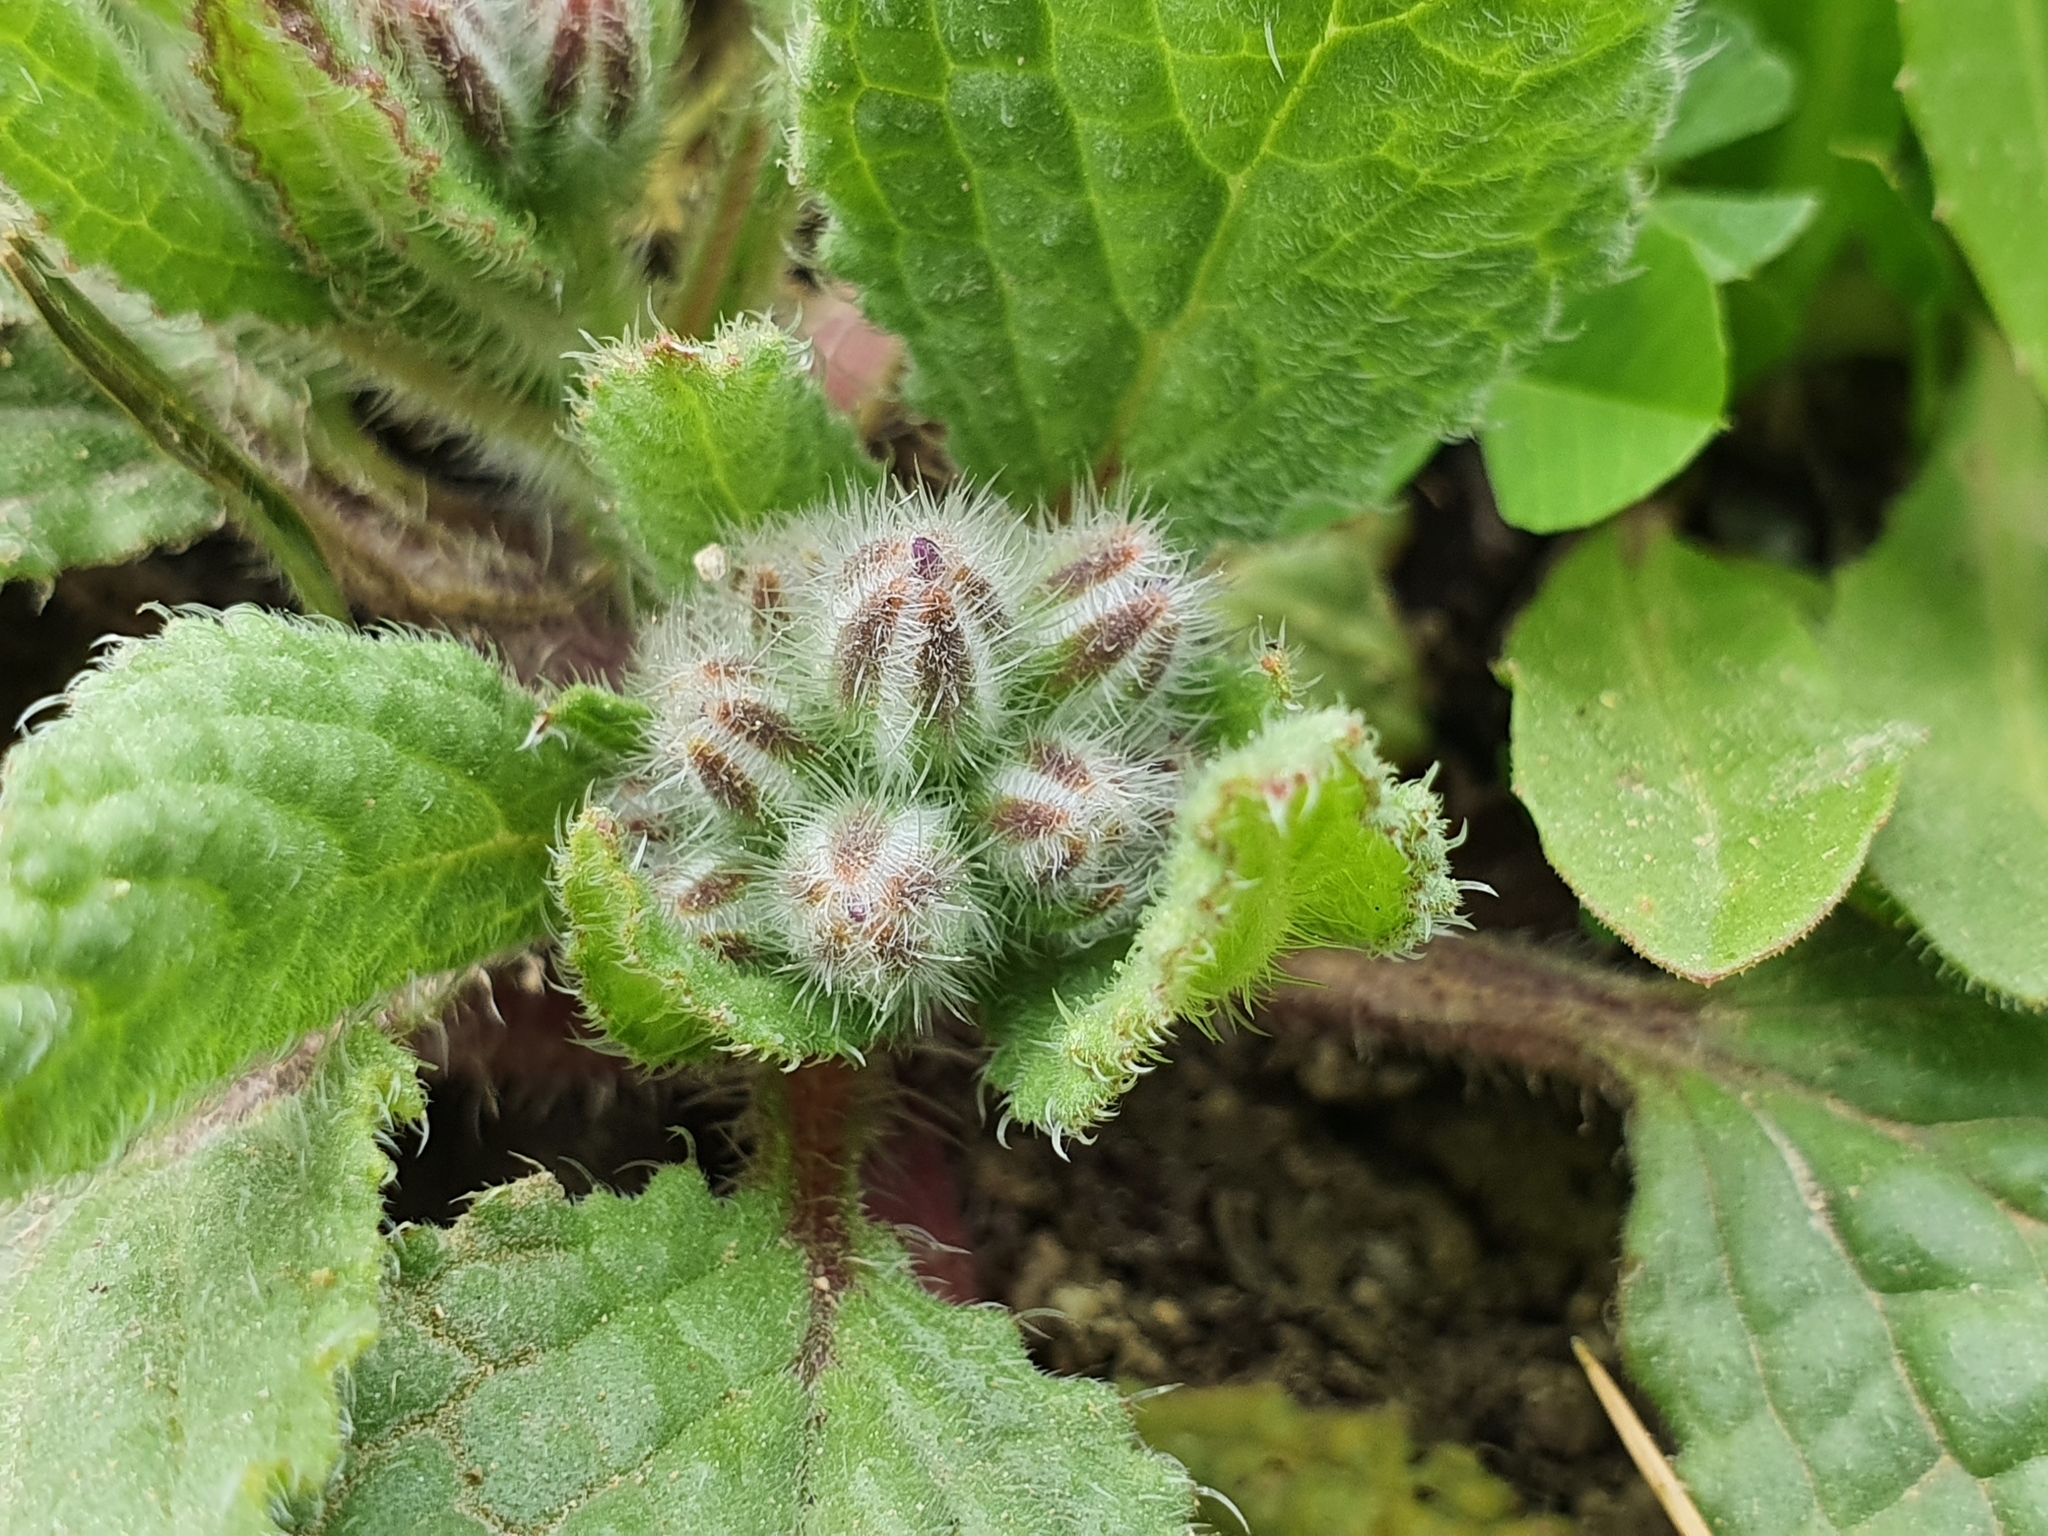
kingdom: Plantae
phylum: Tracheophyta
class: Magnoliopsida
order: Boraginales
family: Boraginaceae
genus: Borago
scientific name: Borago officinalis
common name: Borage
